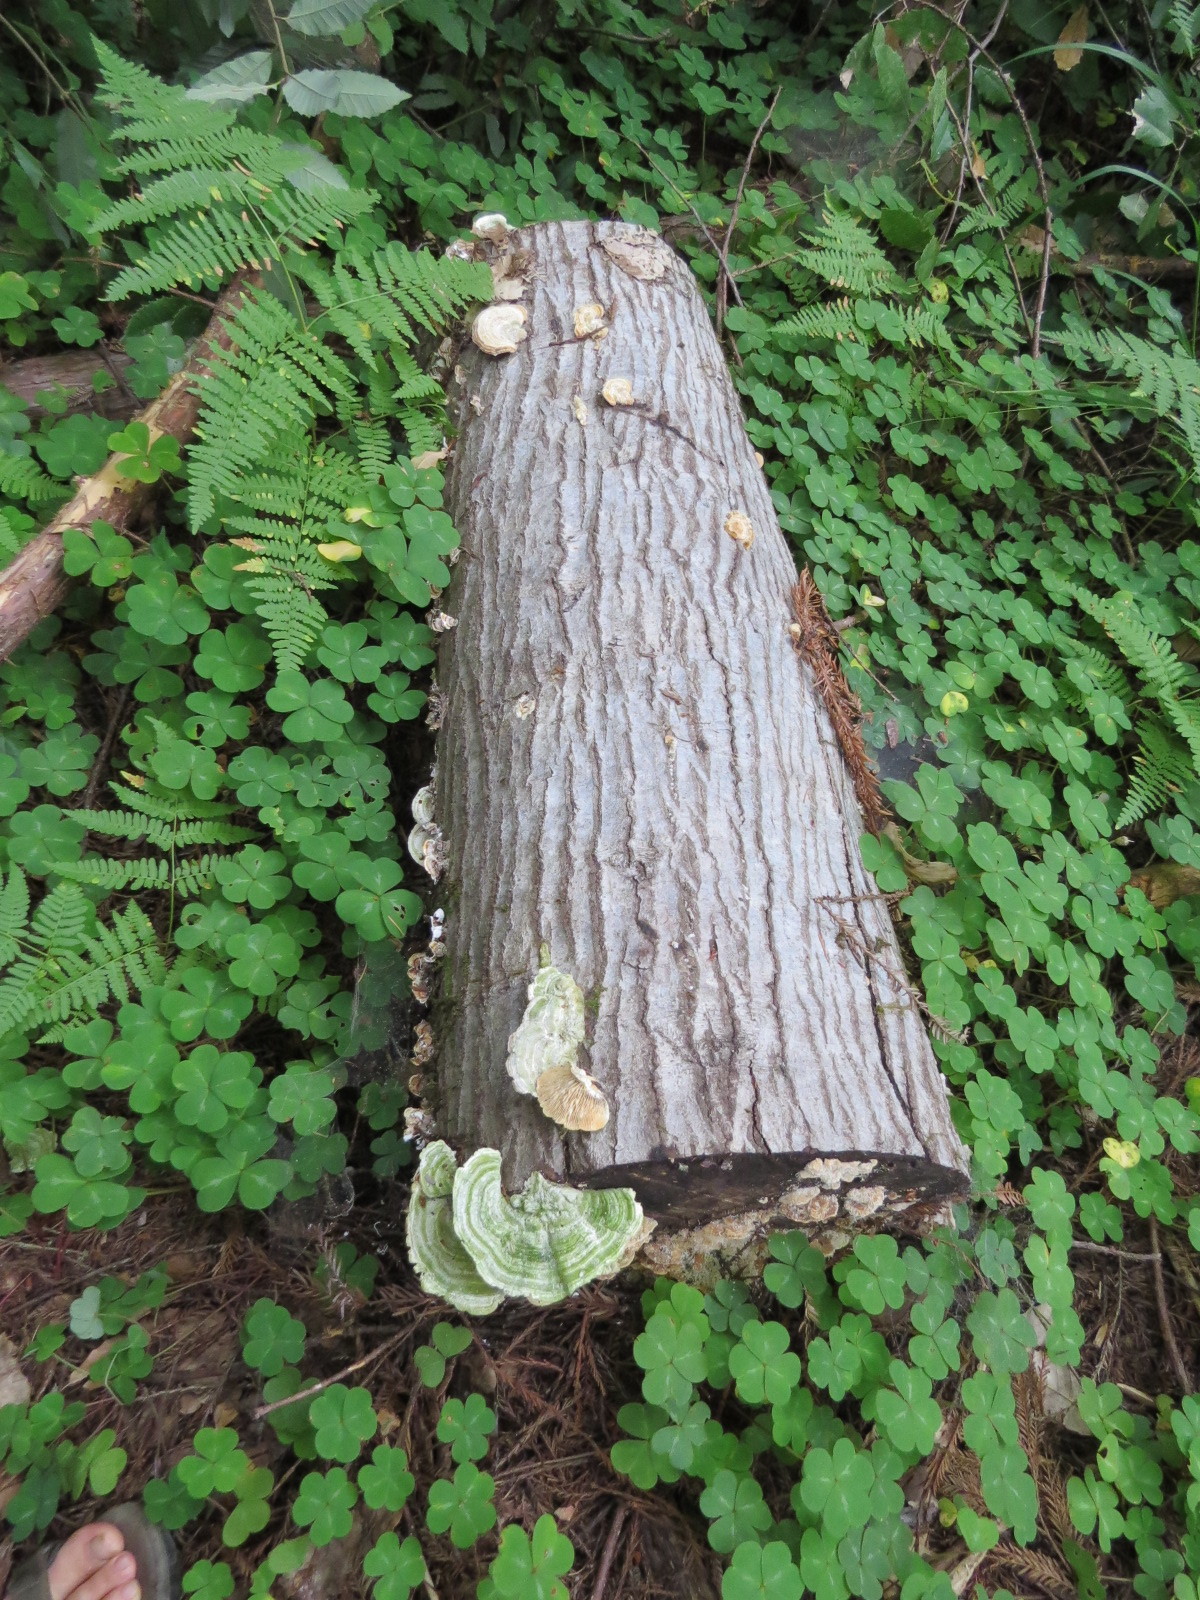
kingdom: Fungi
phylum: Basidiomycota
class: Agaricomycetes
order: Polyporales
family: Polyporaceae
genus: Lenzites
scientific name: Lenzites betulinus
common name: Birch mazegill
